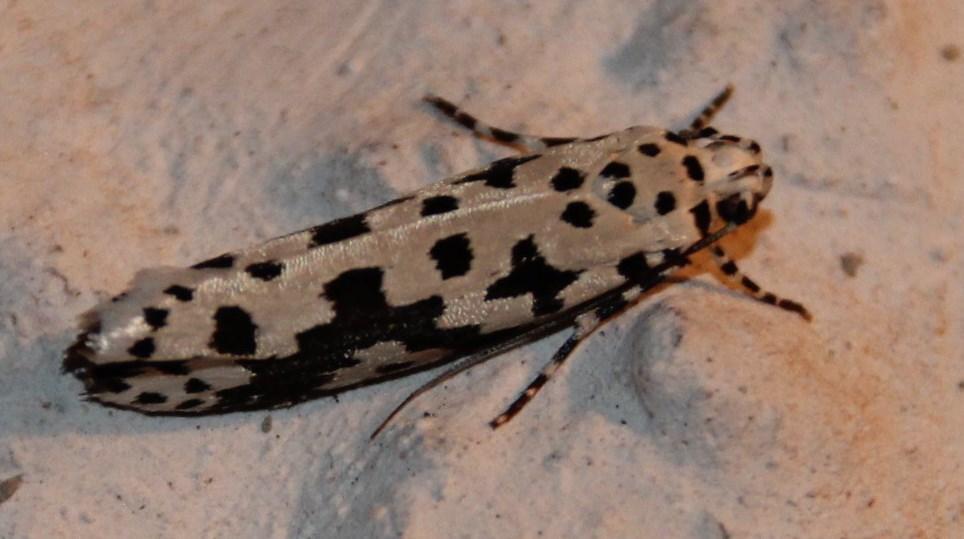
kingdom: Animalia
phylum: Arthropoda
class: Insecta
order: Lepidoptera
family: Ethmiidae
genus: Ethmia
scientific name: Ethmia sabiella
